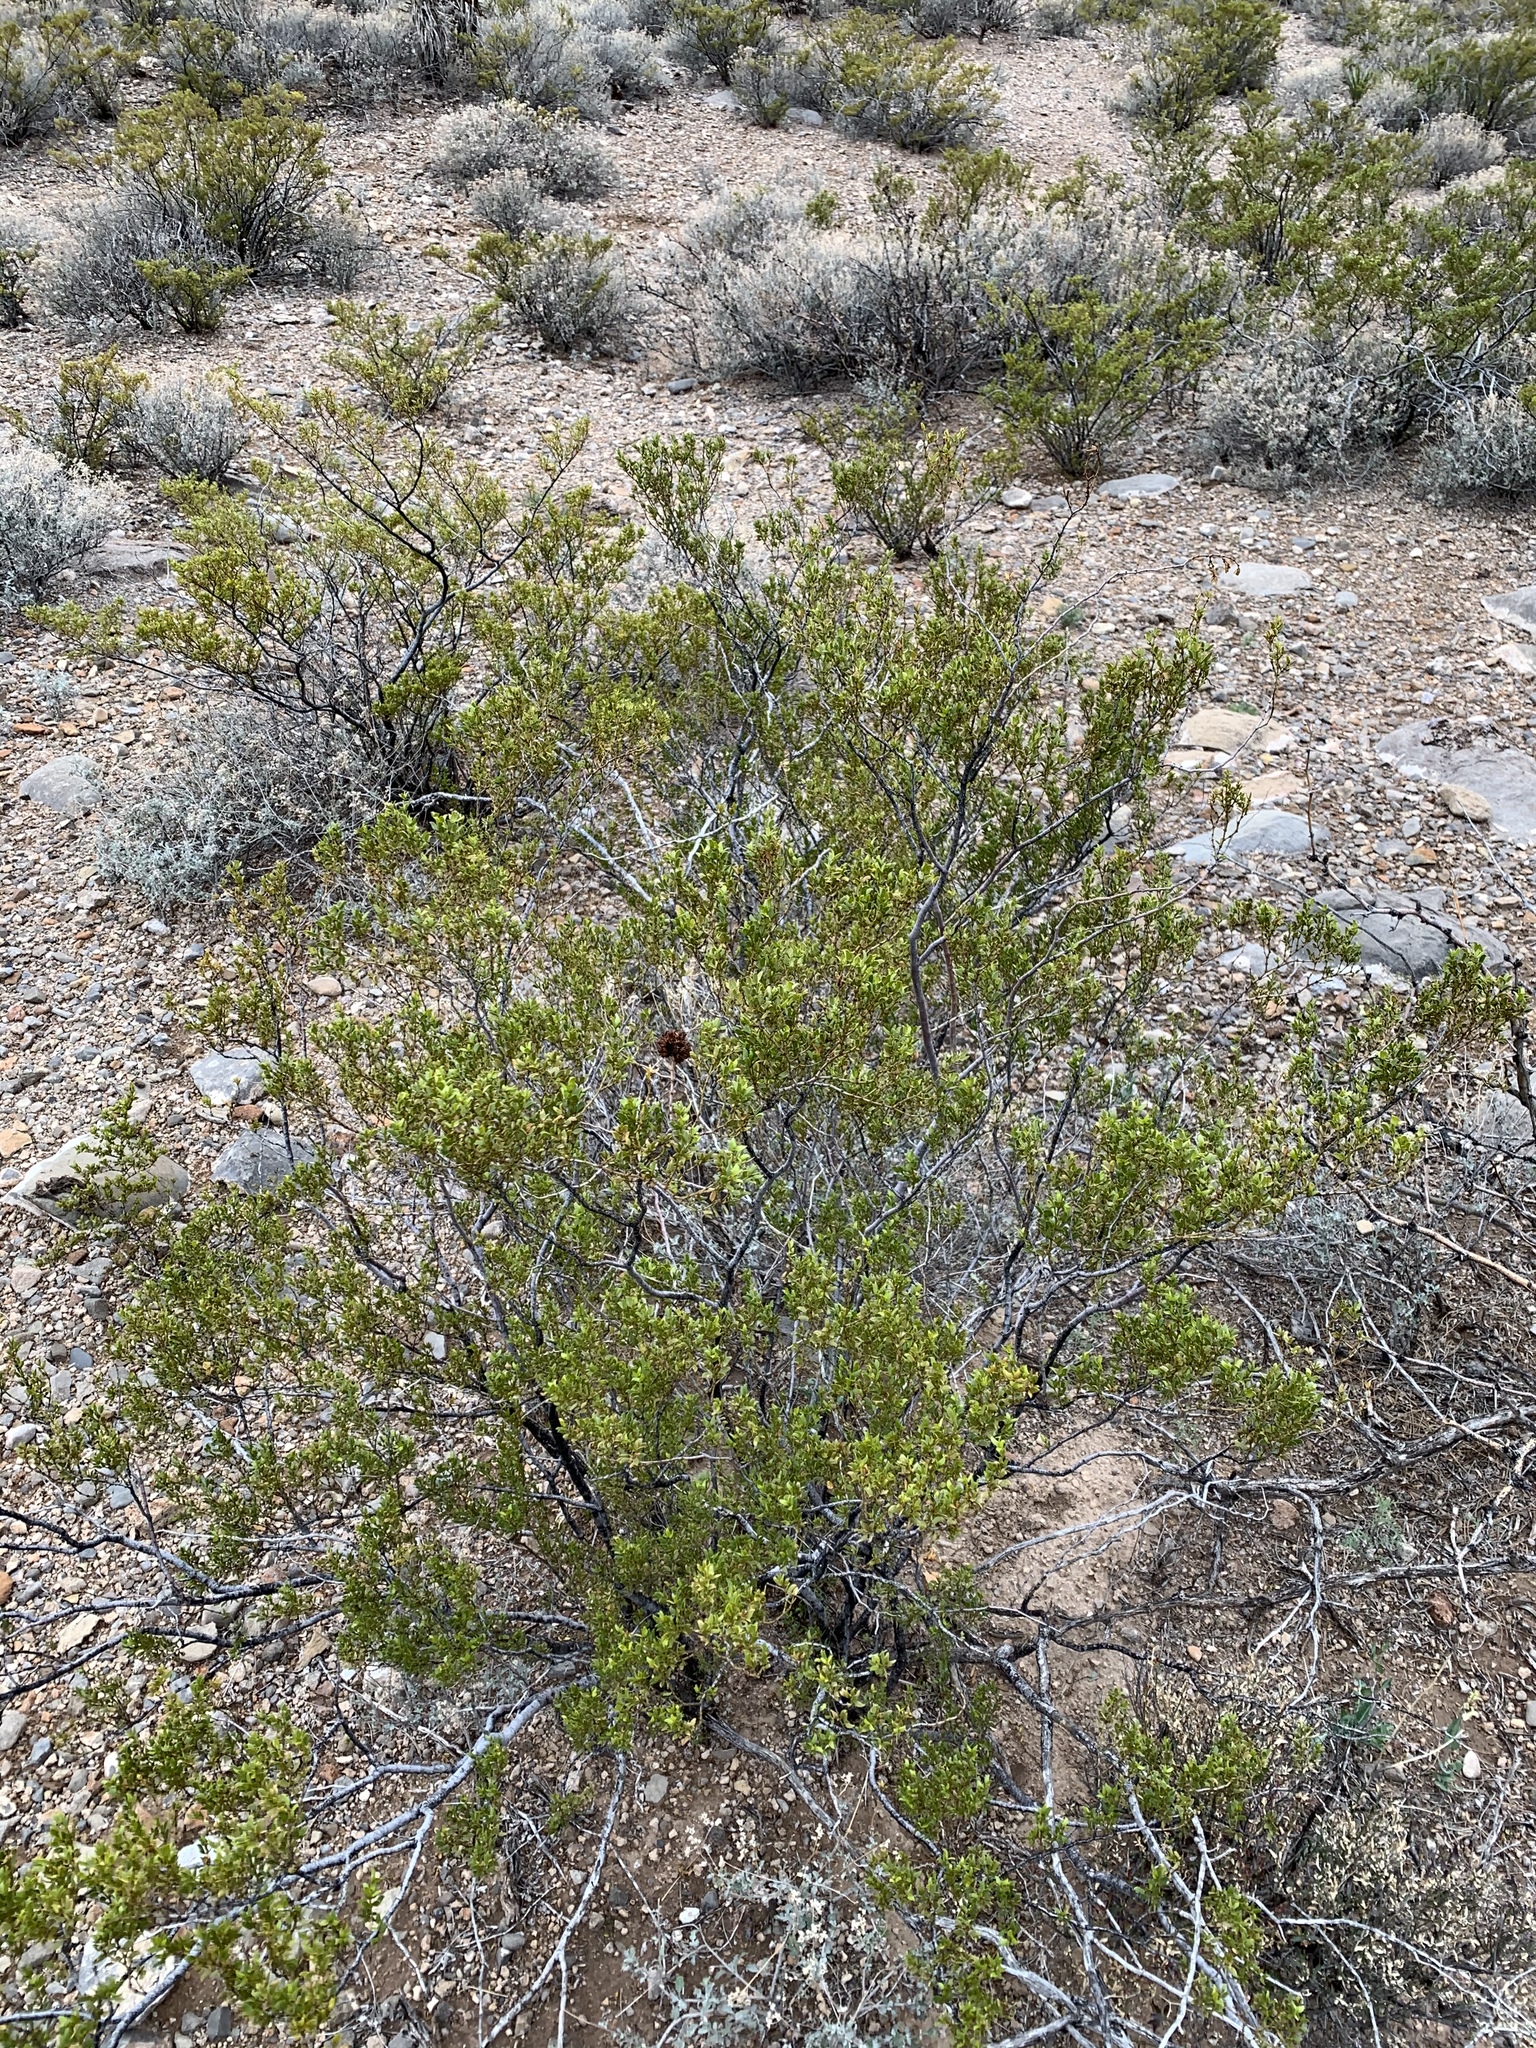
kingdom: Plantae
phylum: Tracheophyta
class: Magnoliopsida
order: Zygophyllales
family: Zygophyllaceae
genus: Larrea
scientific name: Larrea tridentata
